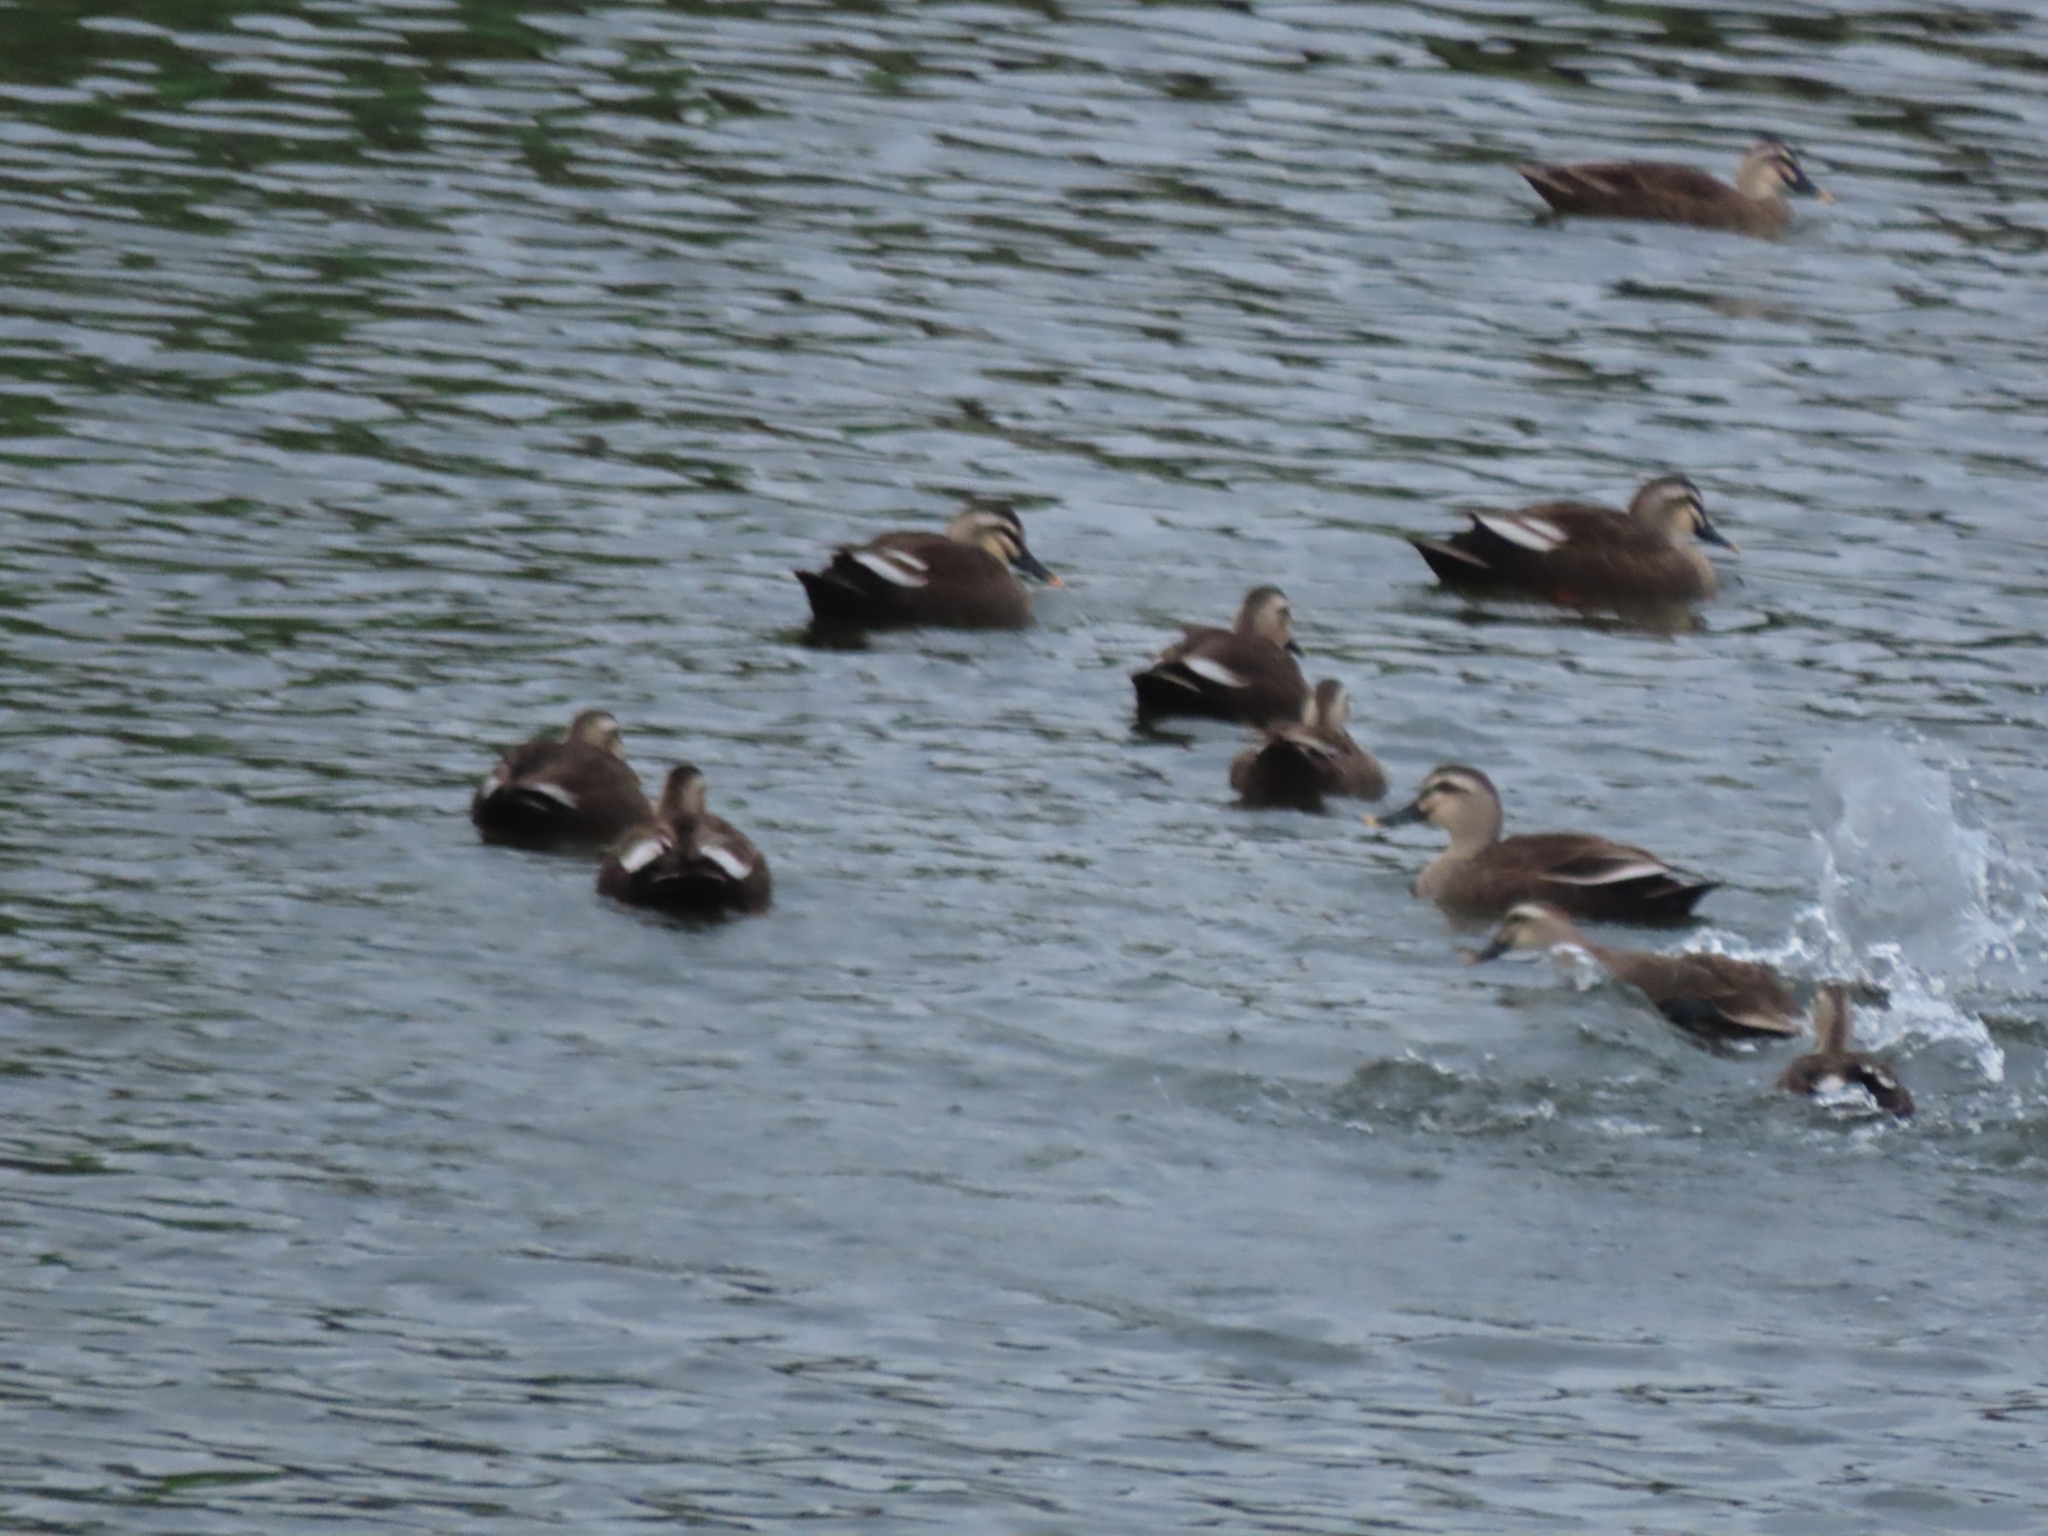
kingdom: Animalia
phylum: Chordata
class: Aves
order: Anseriformes
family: Anatidae
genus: Anas
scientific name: Anas zonorhyncha
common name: Eastern spot-billed duck
